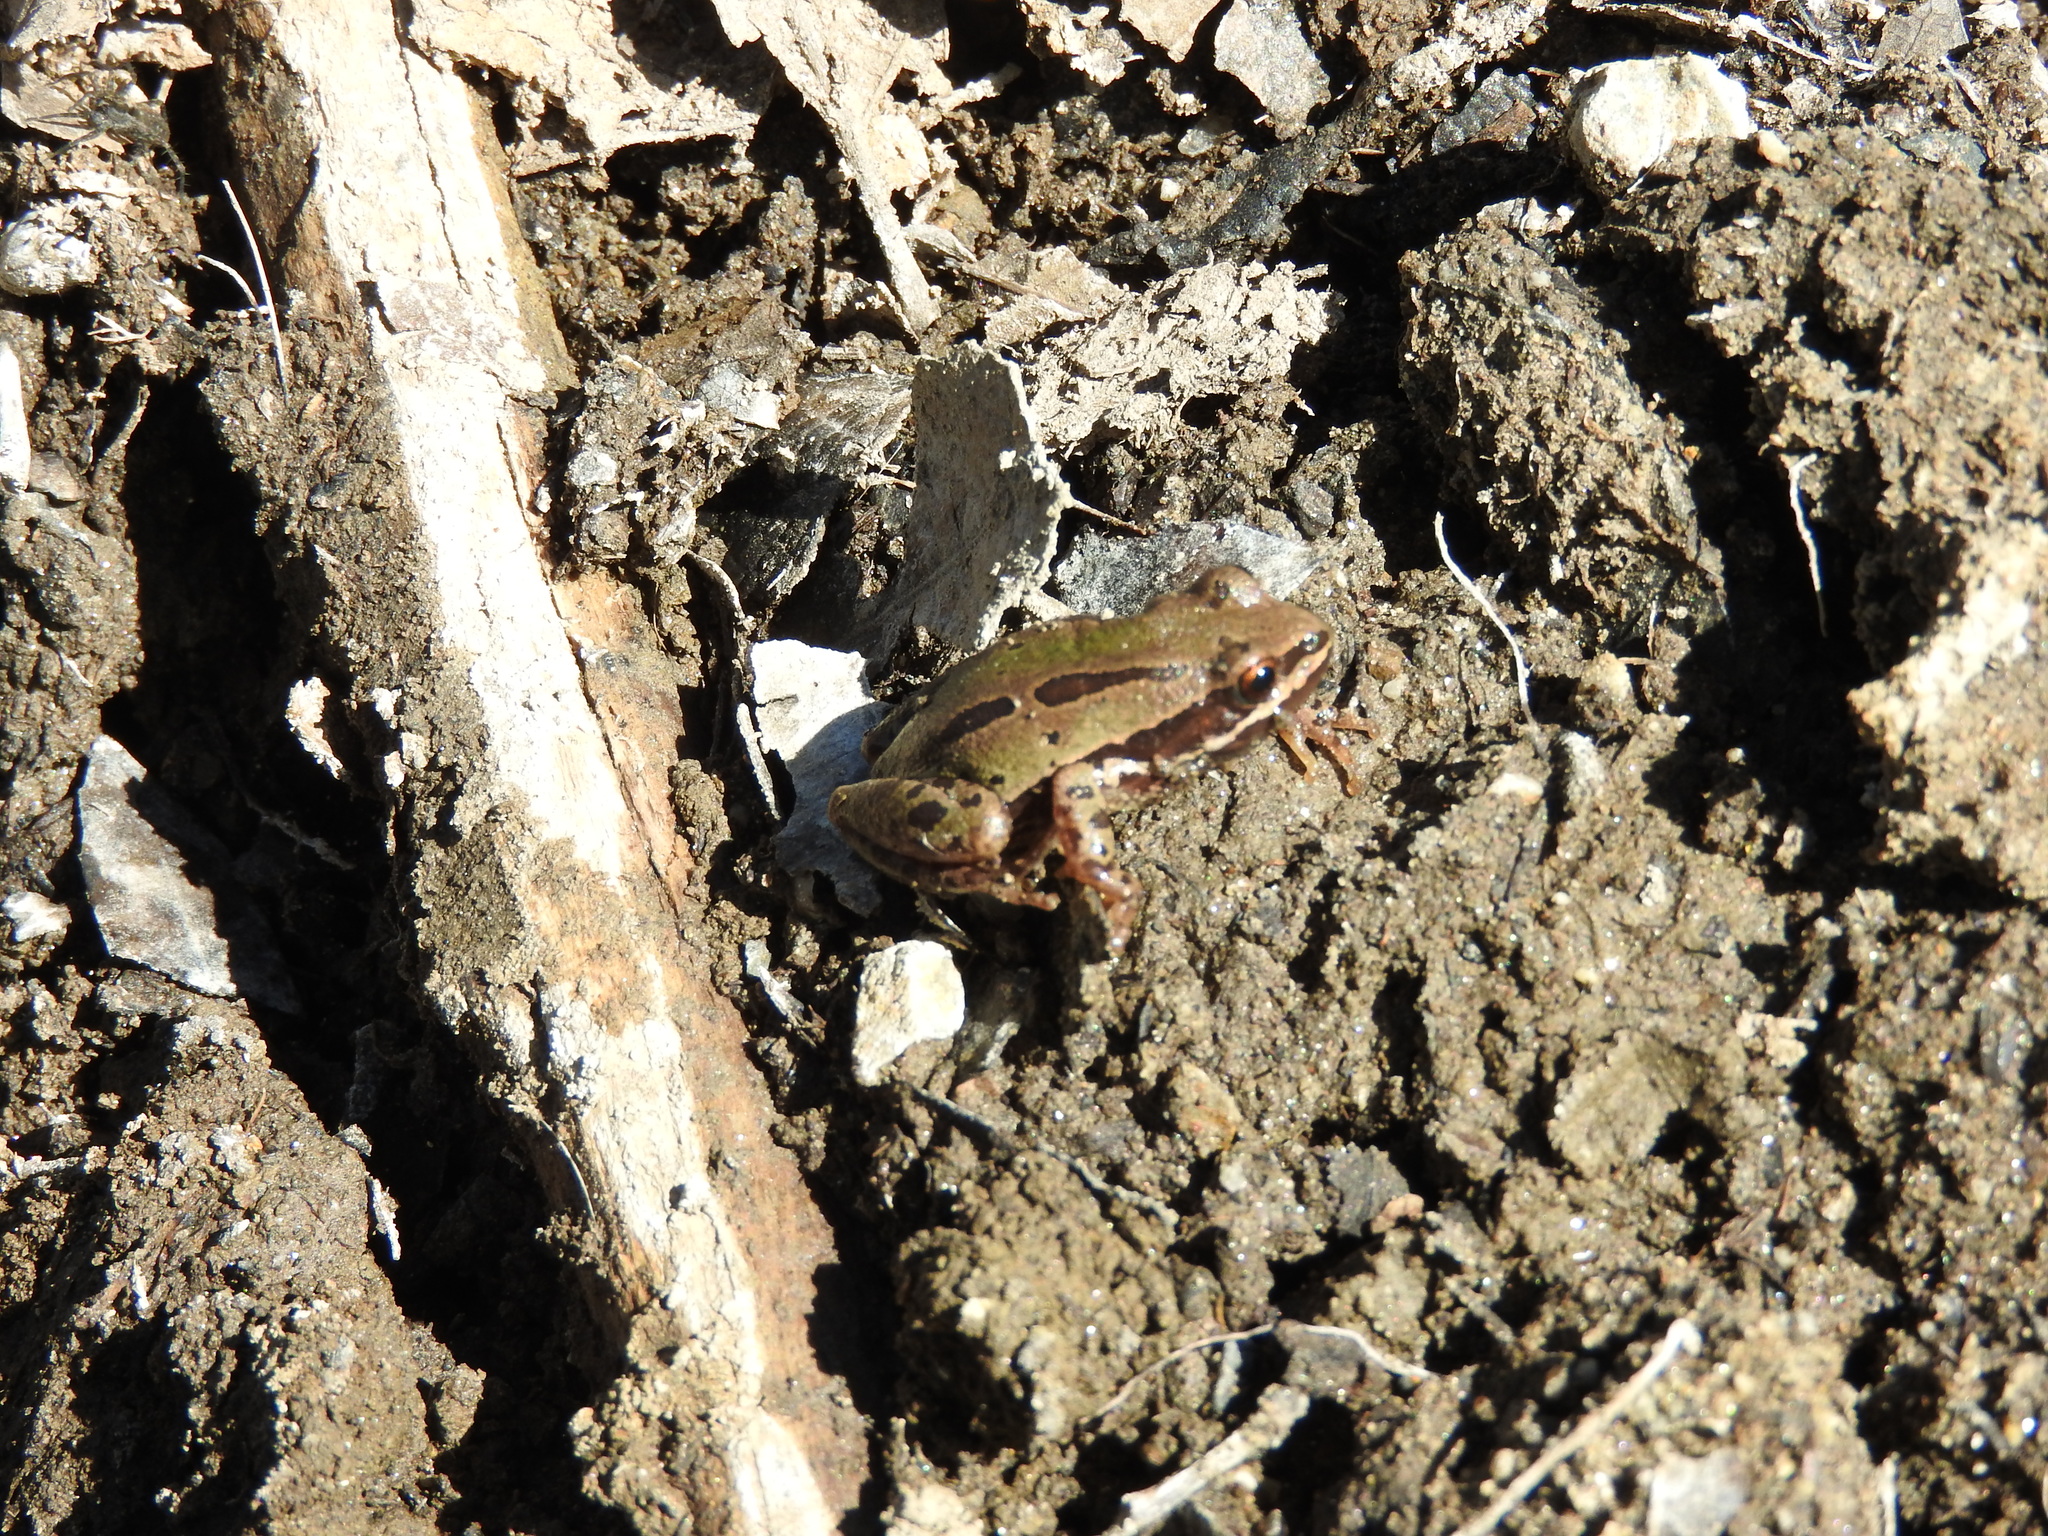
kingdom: Animalia
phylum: Chordata
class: Amphibia
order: Anura
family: Hylidae
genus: Dryophytes
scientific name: Dryophytes eximius
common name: Mountain treefrog
